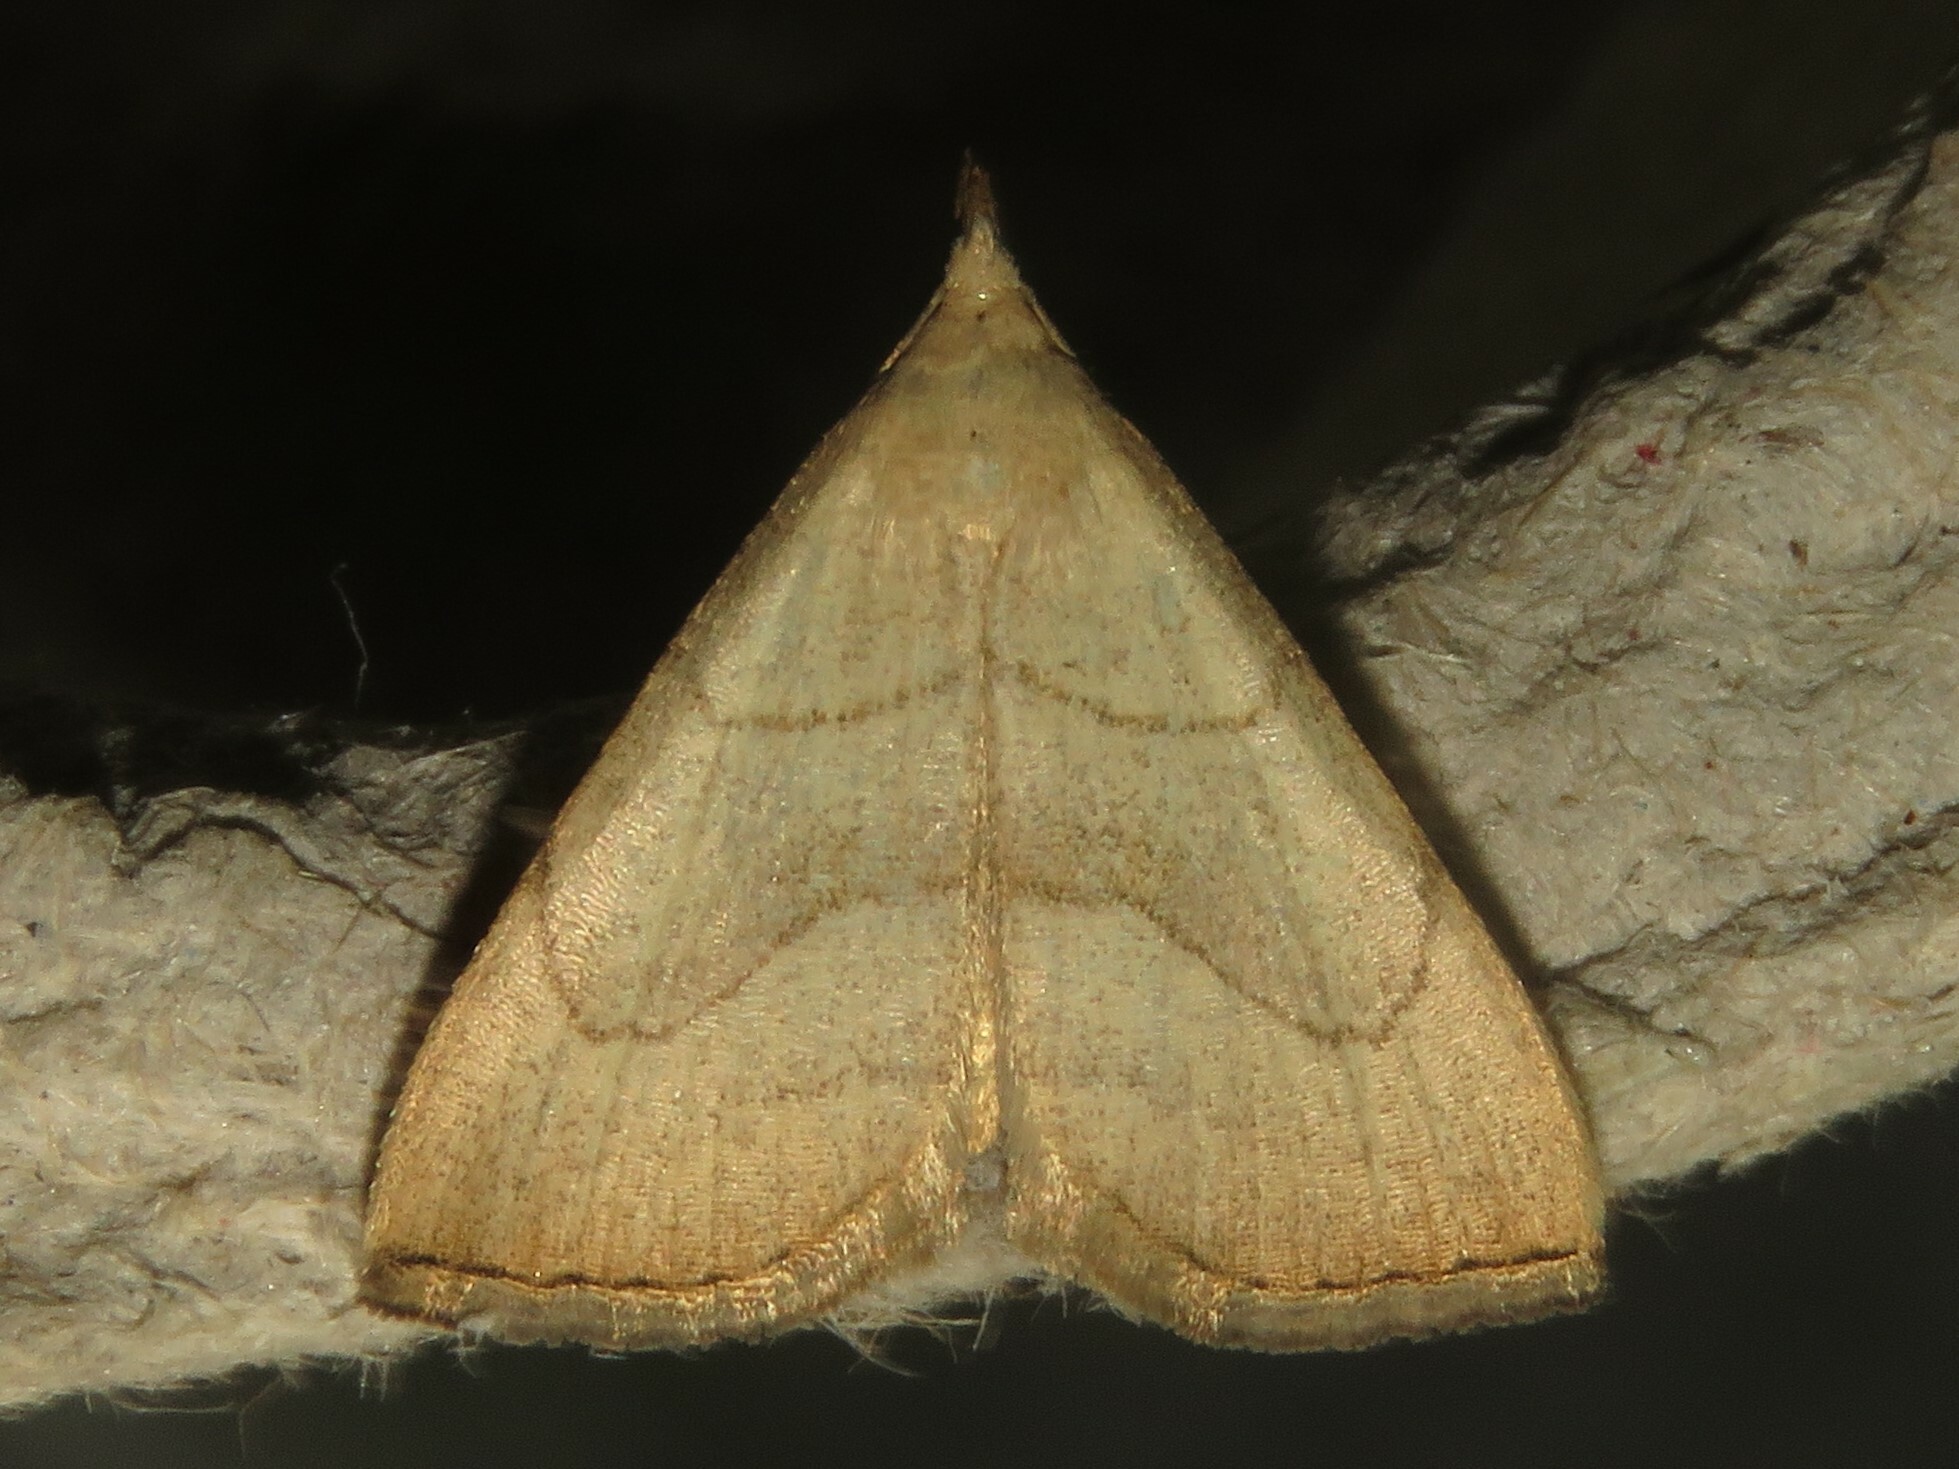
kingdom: Animalia
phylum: Arthropoda
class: Insecta
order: Lepidoptera
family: Erebidae
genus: Macrochilo
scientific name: Macrochilo litophora
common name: Brown-lined owlet
